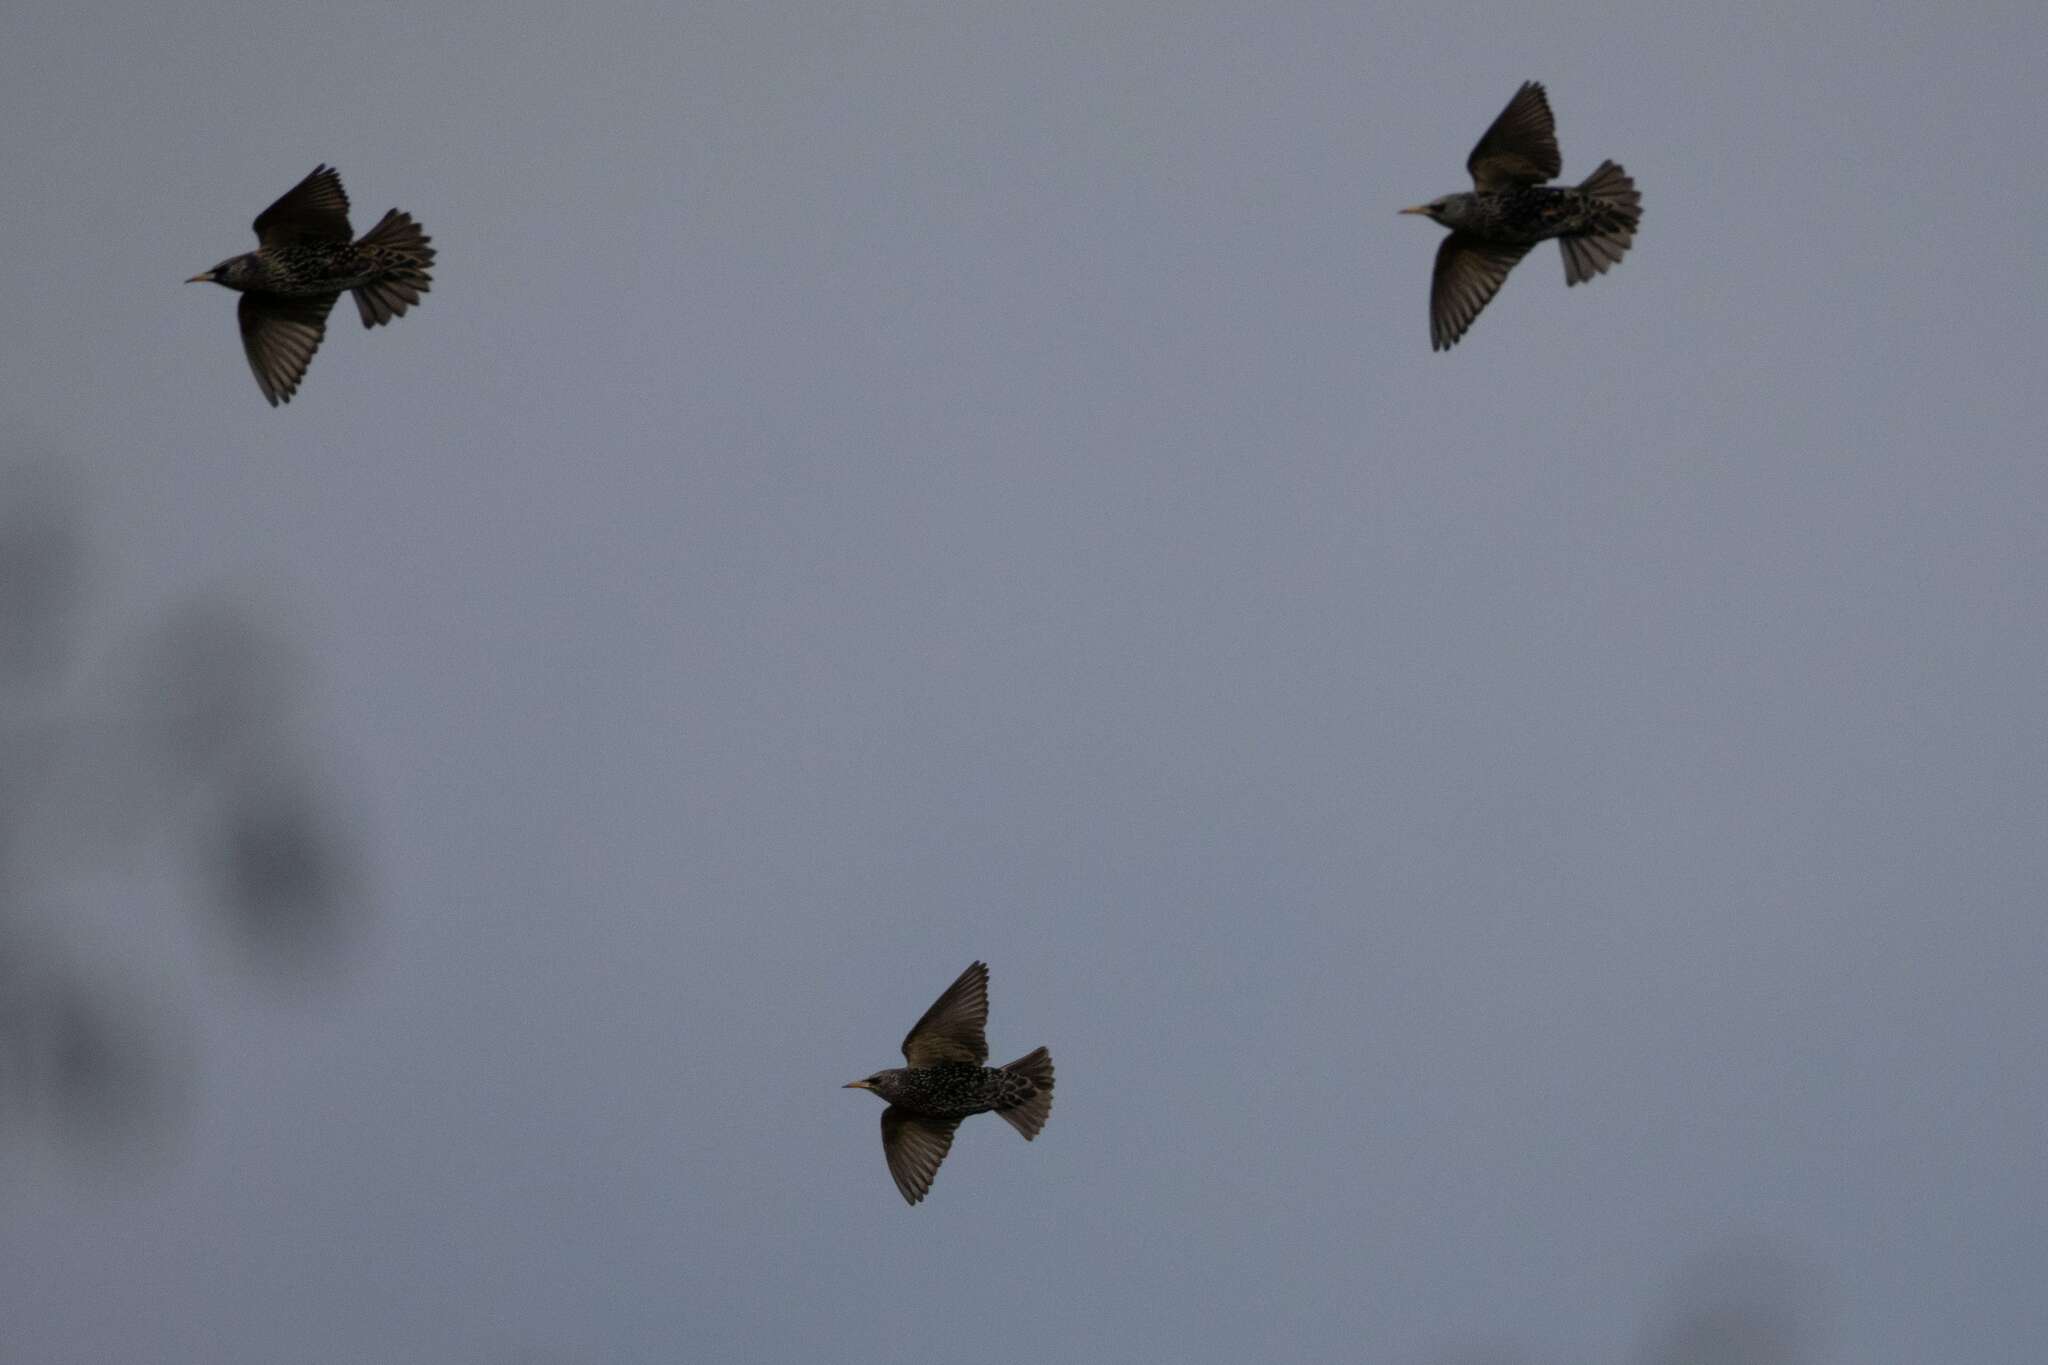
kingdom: Animalia
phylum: Chordata
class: Aves
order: Passeriformes
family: Sturnidae
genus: Sturnus
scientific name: Sturnus vulgaris
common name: Common starling
